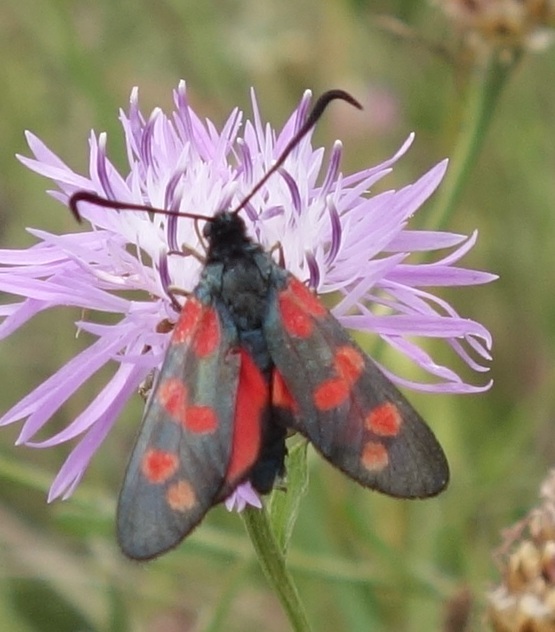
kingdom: Animalia
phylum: Arthropoda
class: Insecta
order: Lepidoptera
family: Zygaenidae
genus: Zygaena
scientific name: Zygaena filipendulae
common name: Six-spot burnet
